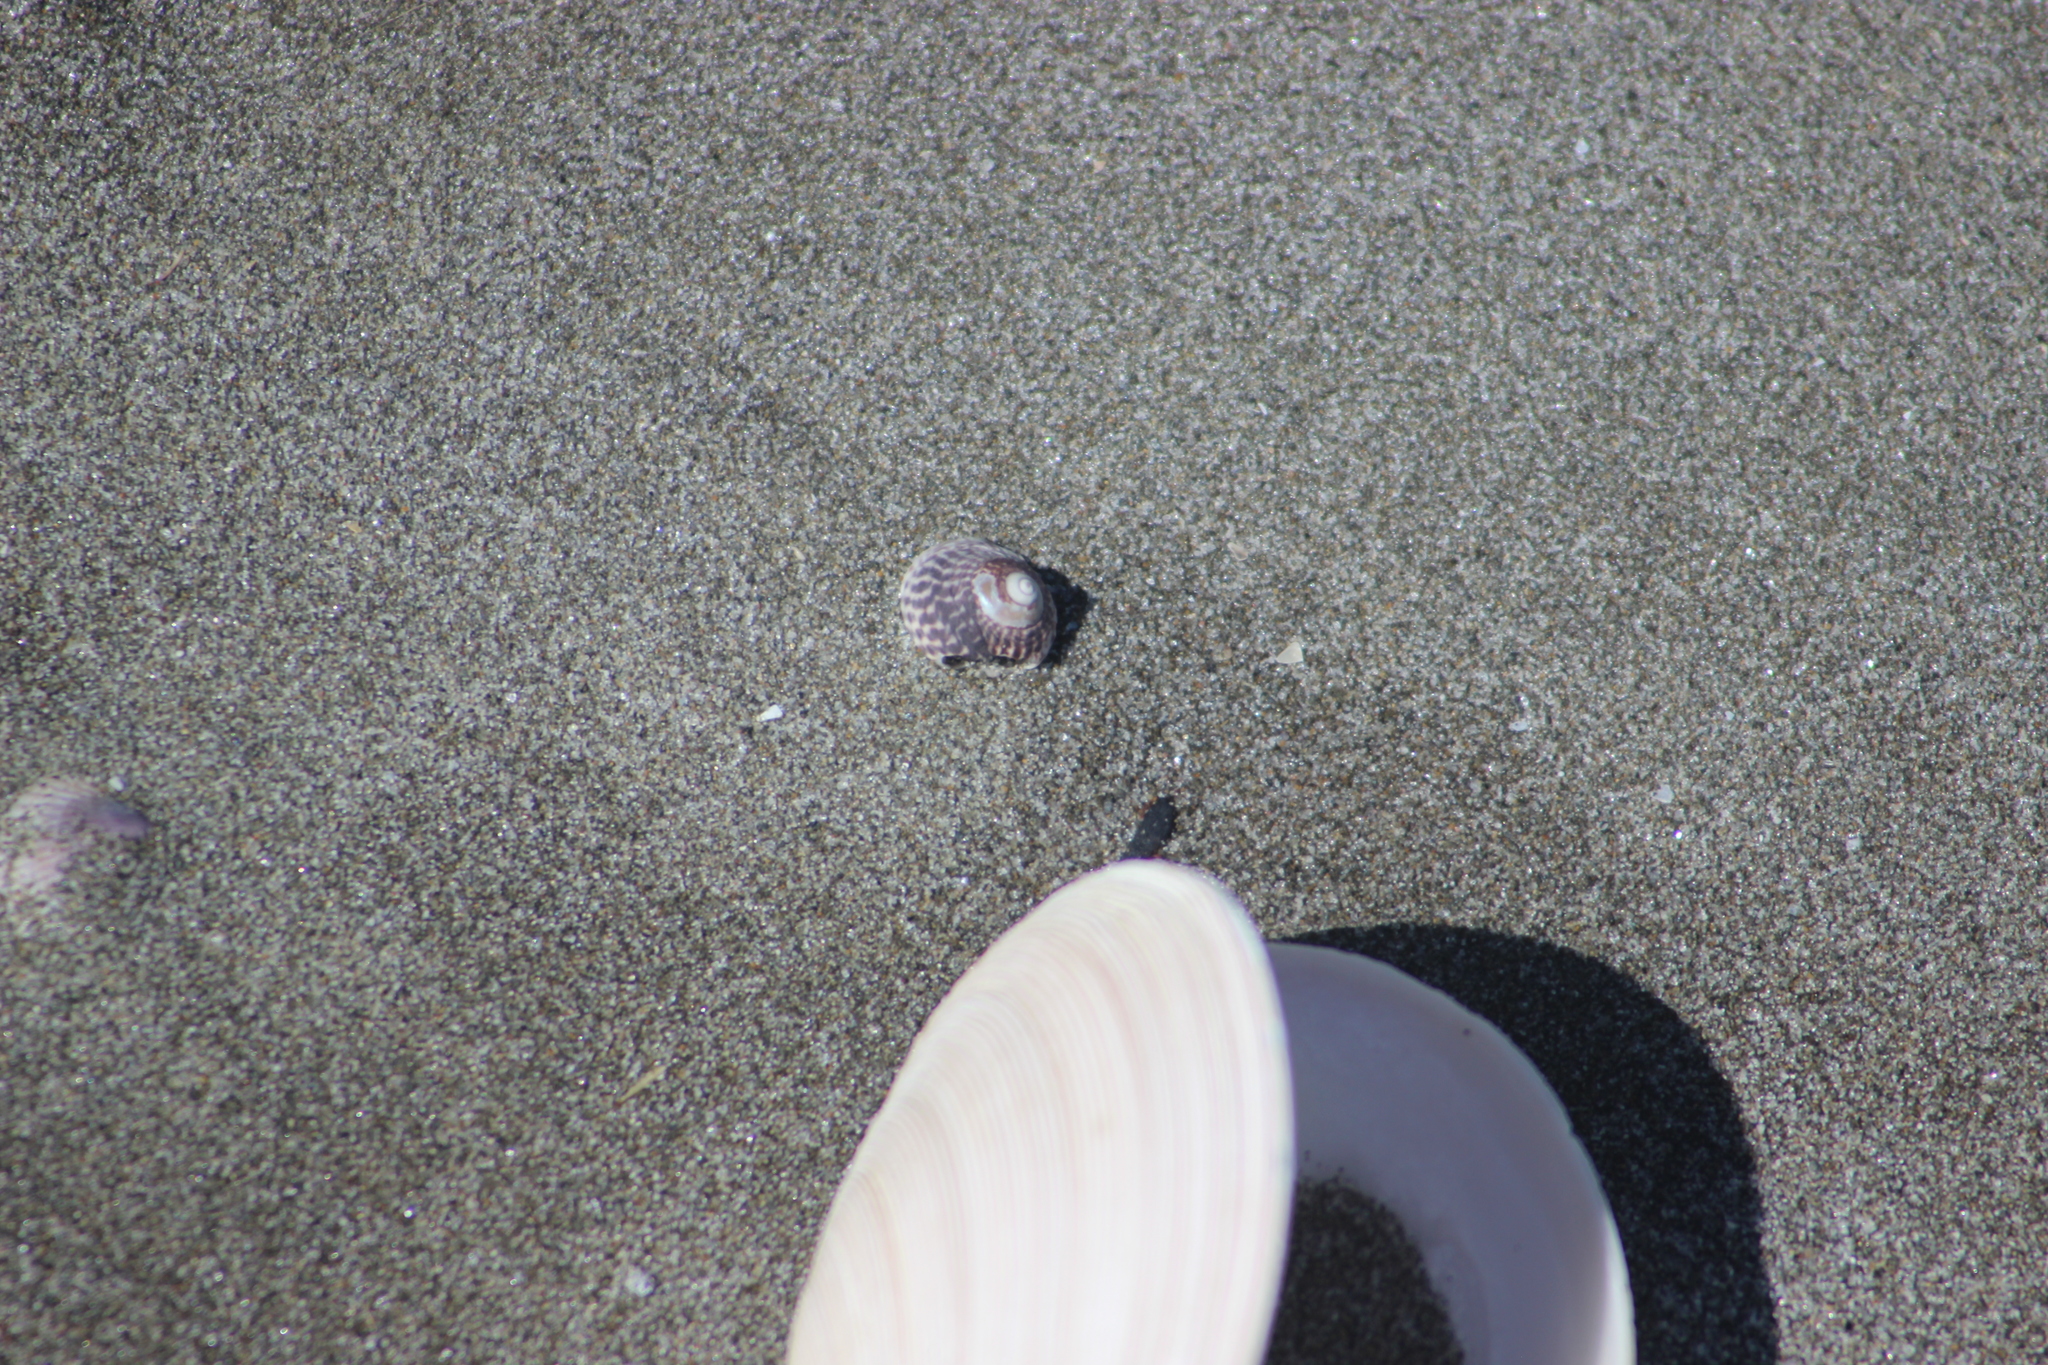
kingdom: Animalia
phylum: Mollusca
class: Gastropoda
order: Trochida
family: Trochidae
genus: Diloma
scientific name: Diloma subrostratum
